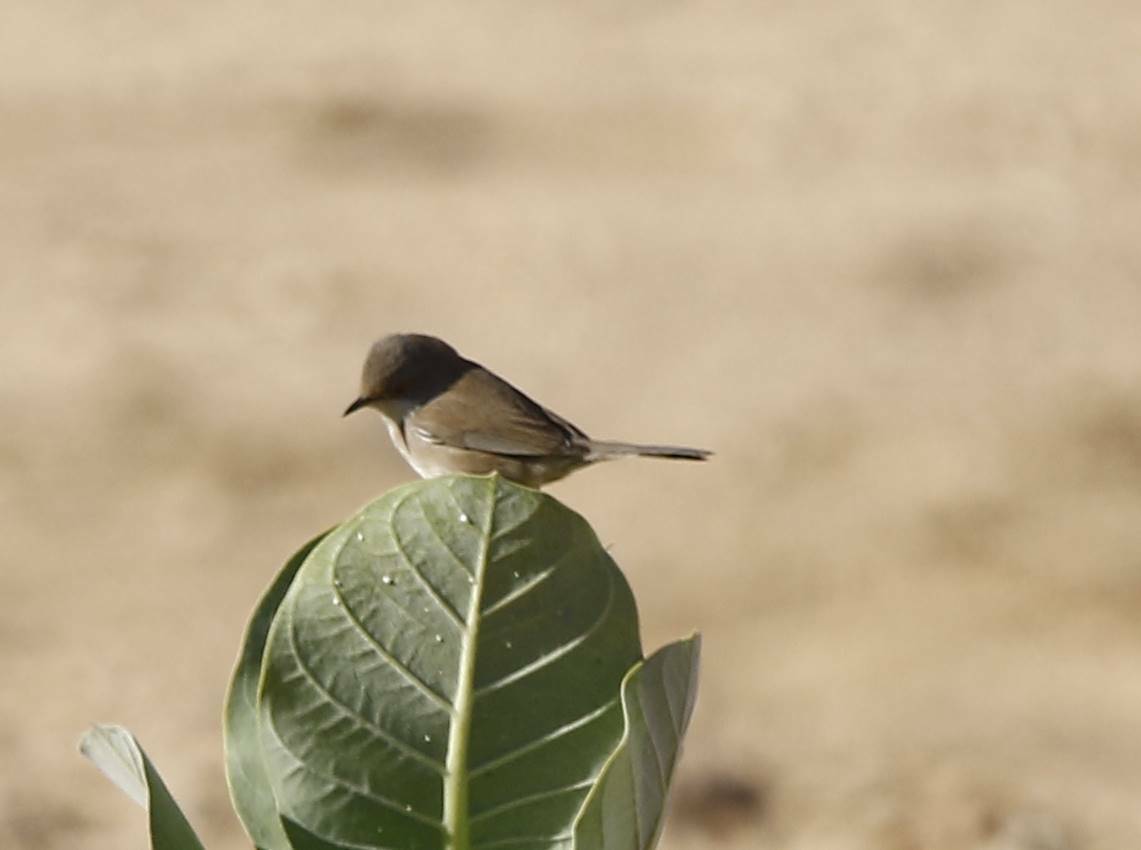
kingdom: Animalia
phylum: Chordata
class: Aves
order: Passeriformes
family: Sylviidae
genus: Sylvia
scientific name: Sylvia curruca
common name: Lesser whitethroat
